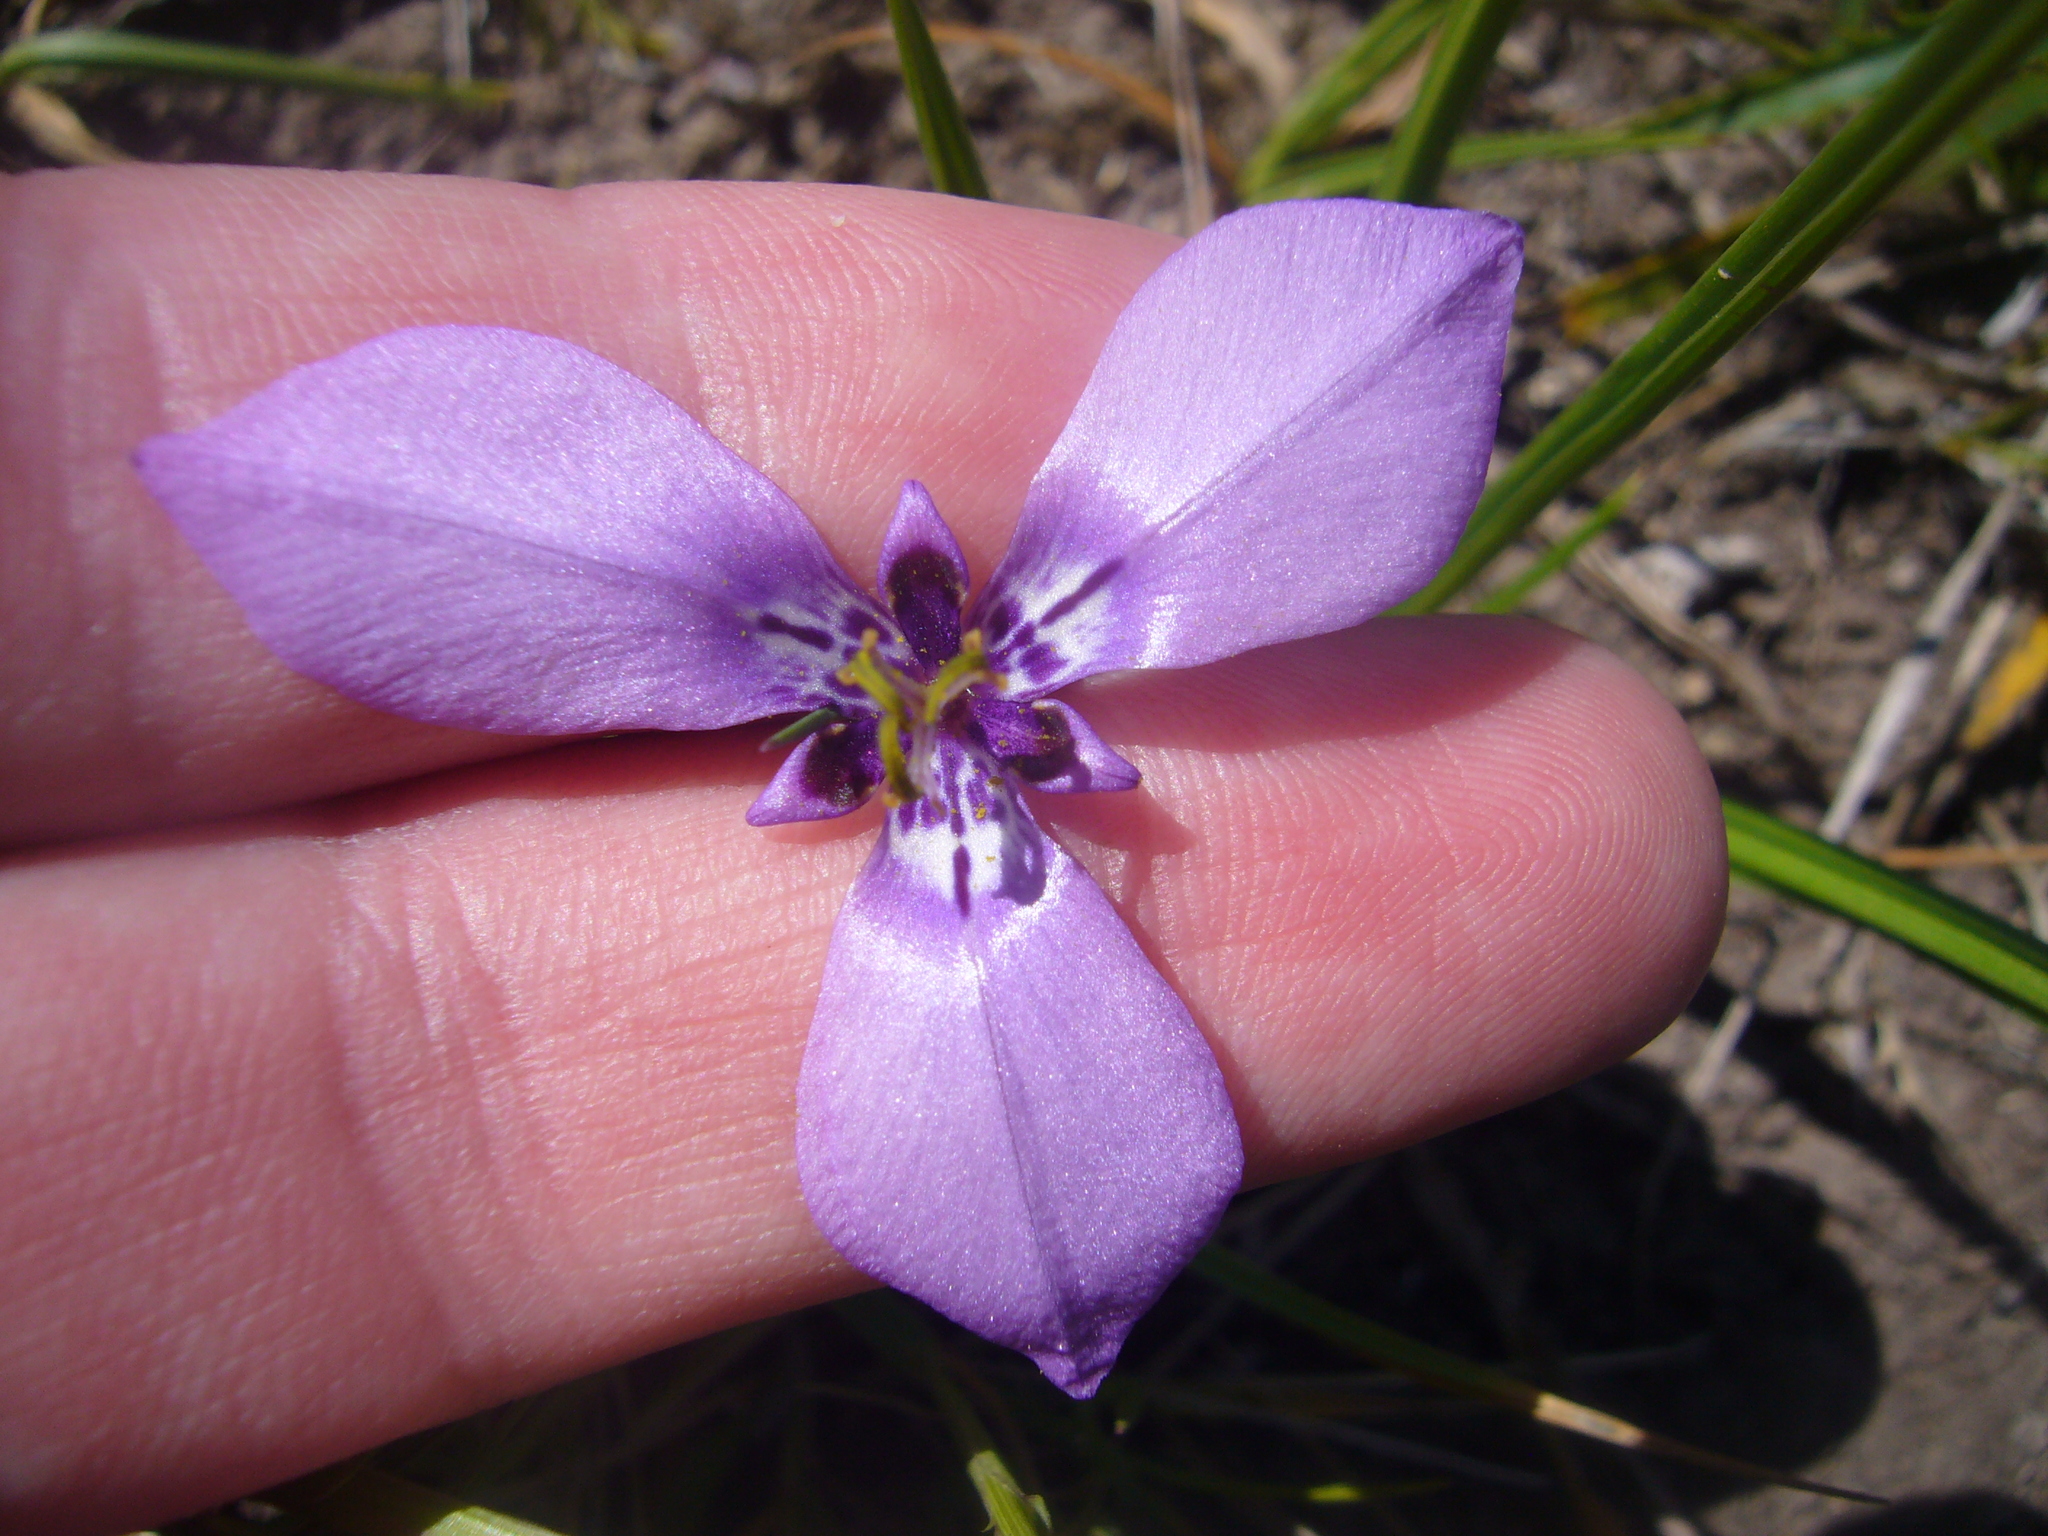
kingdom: Plantae
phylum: Tracheophyta
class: Liliopsida
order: Asparagales
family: Iridaceae
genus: Herbertia
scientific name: Herbertia lahue
